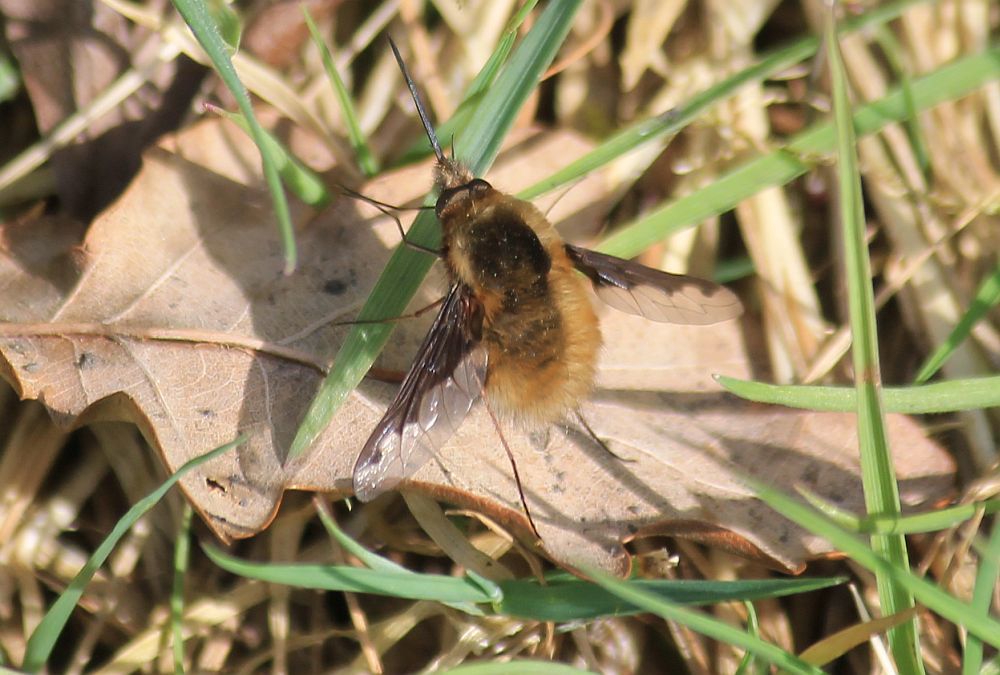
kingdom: Animalia
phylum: Arthropoda
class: Insecta
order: Diptera
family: Bombyliidae
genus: Bombylius
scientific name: Bombylius major
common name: Bee fly
